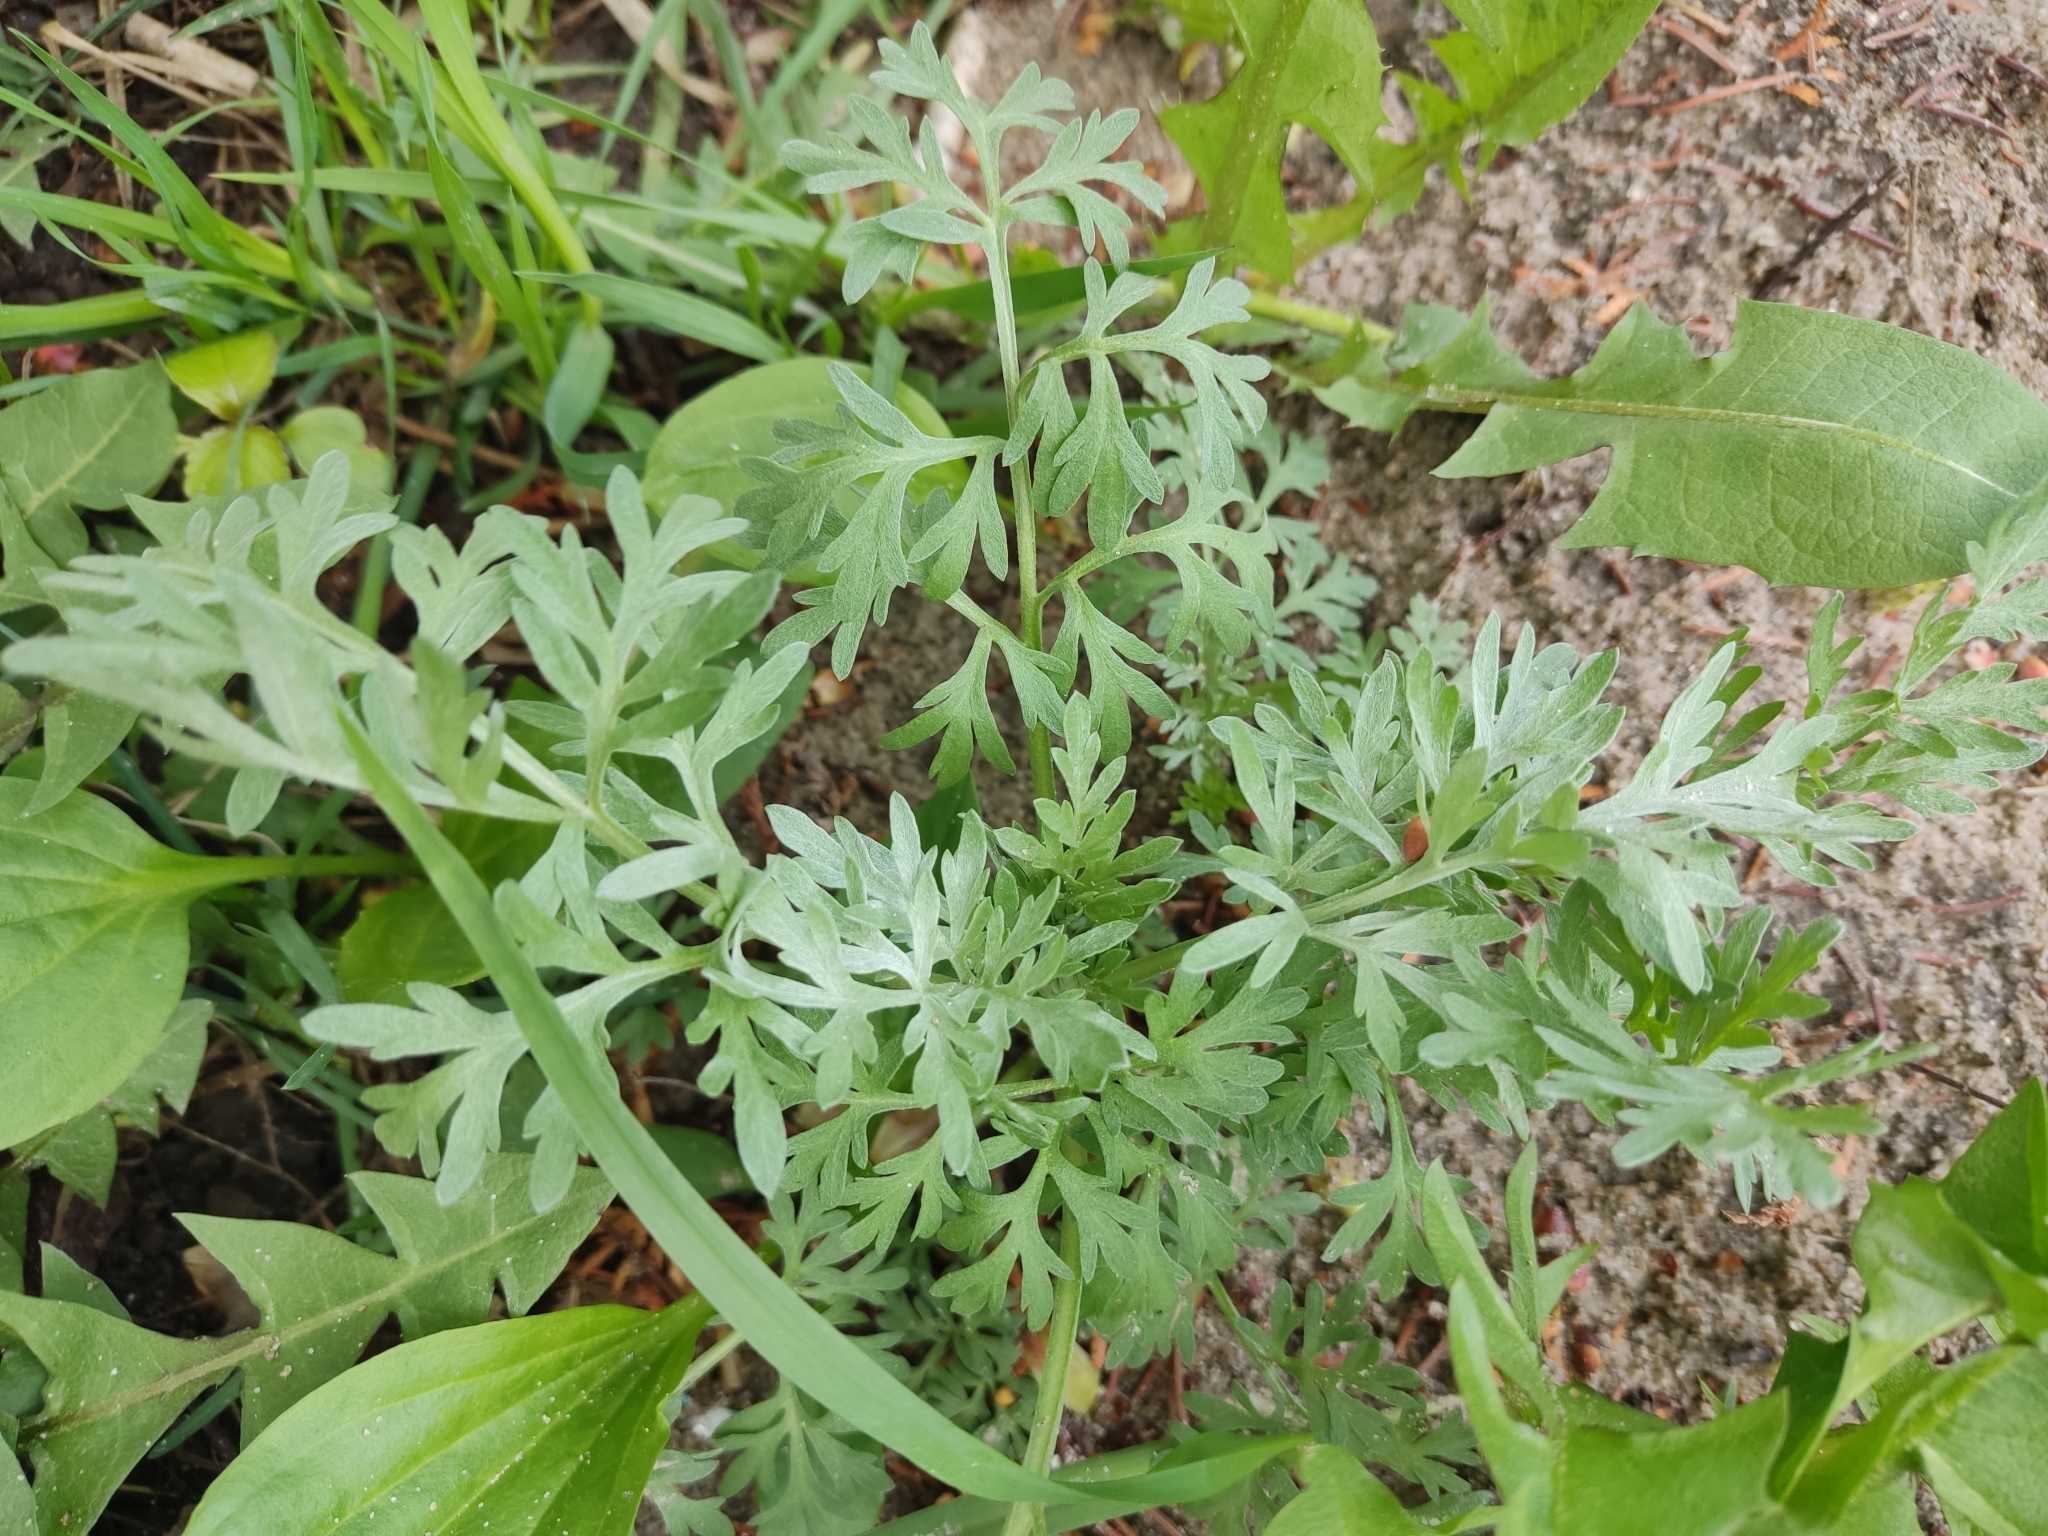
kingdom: Plantae
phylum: Tracheophyta
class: Magnoliopsida
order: Asterales
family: Asteraceae
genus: Artemisia
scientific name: Artemisia absinthium
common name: Wormwood
